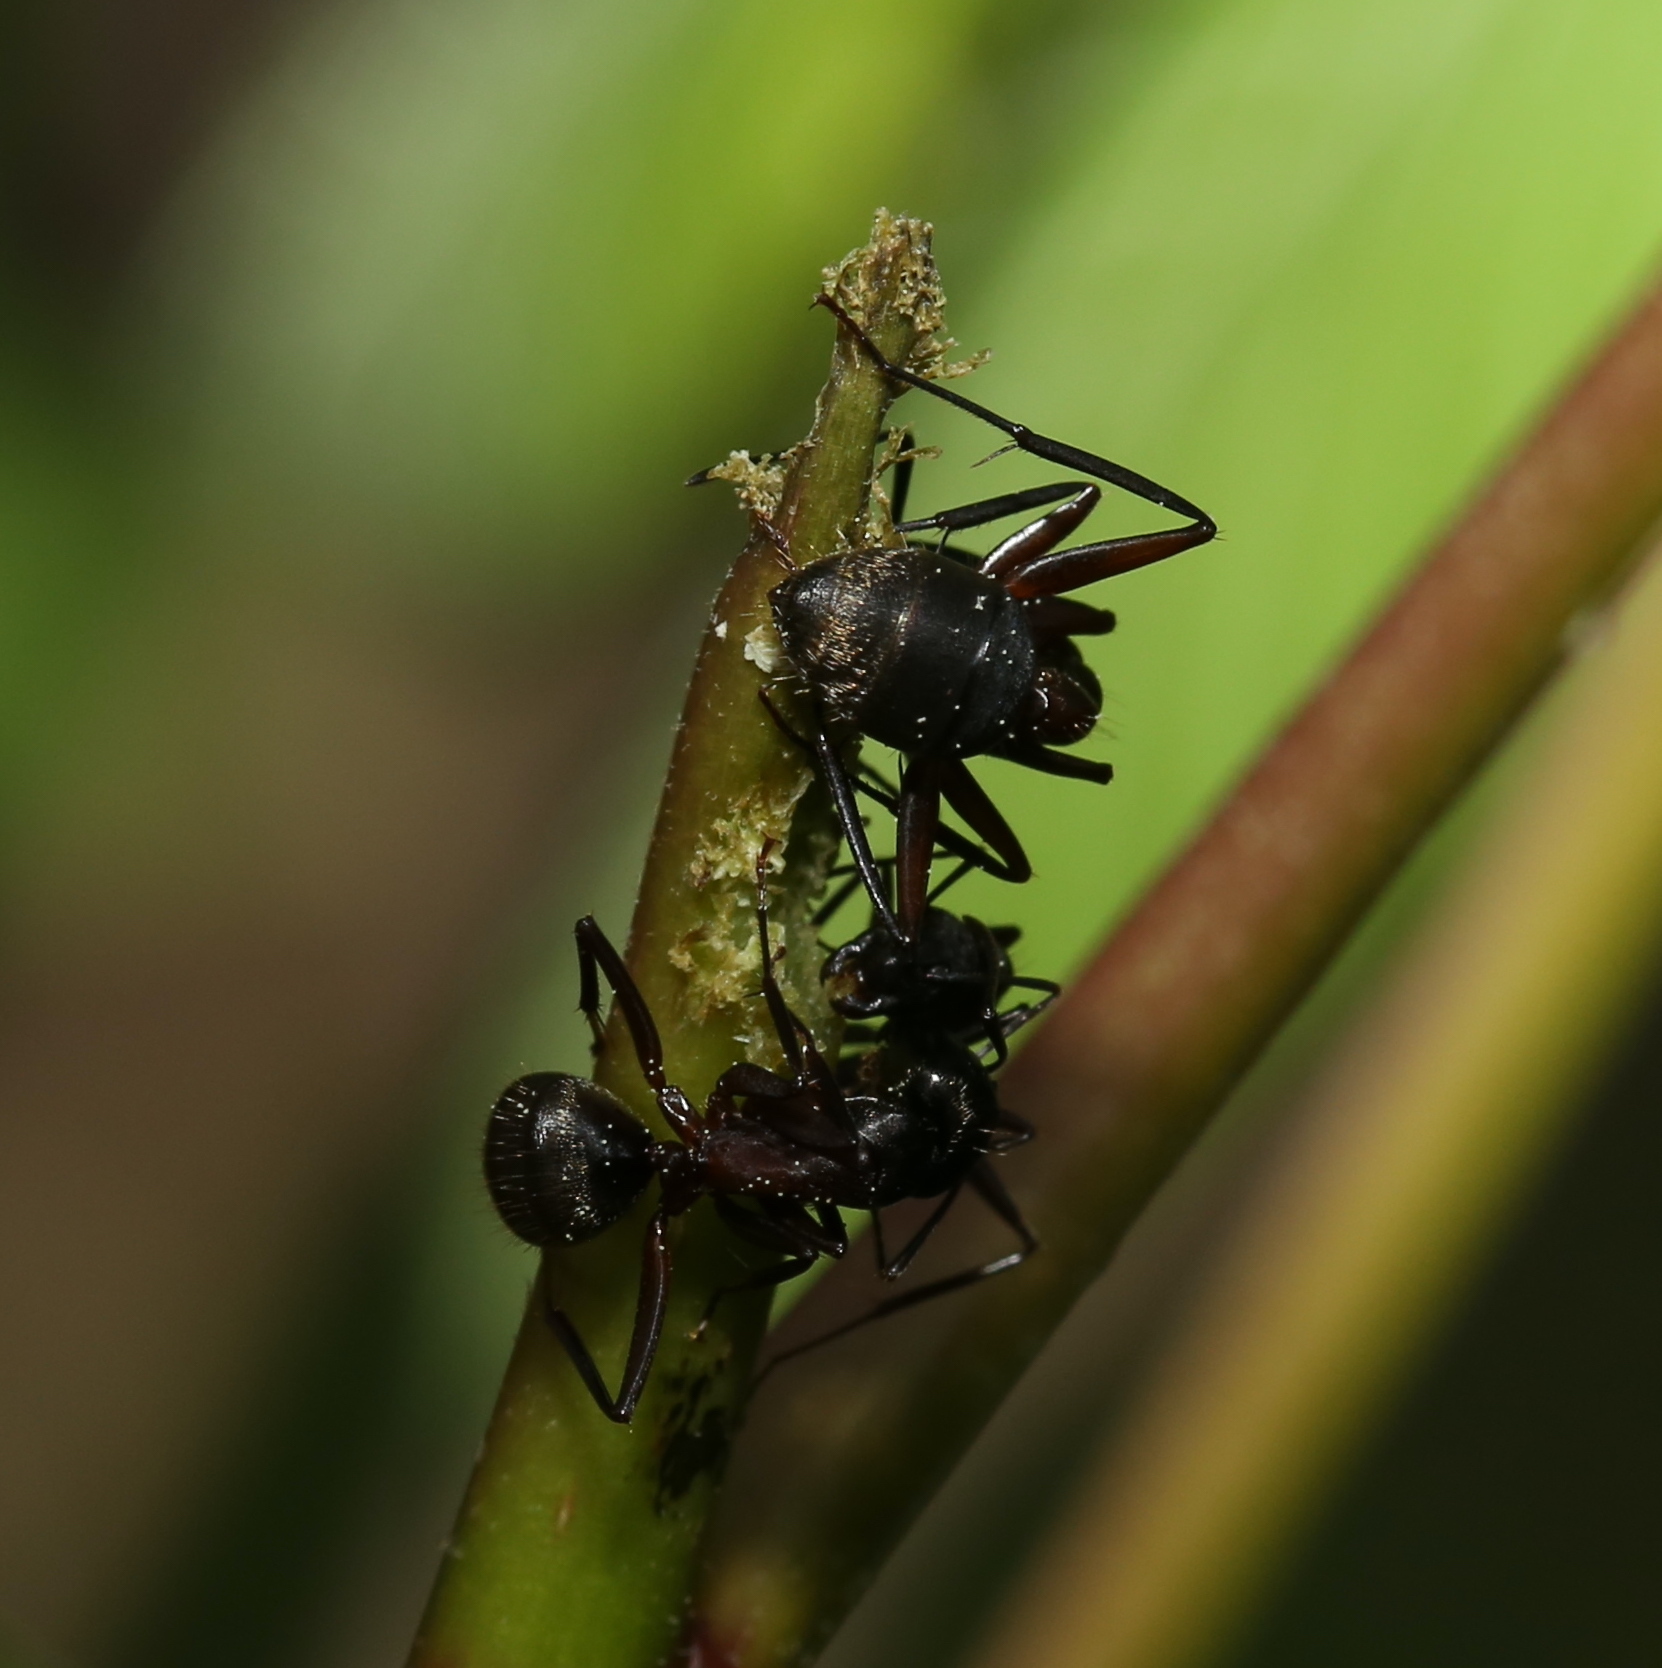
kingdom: Animalia
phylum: Arthropoda
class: Insecta
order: Hymenoptera
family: Formicidae
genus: Camponotus
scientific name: Camponotus chromaiodes
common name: Red carpenter ant
